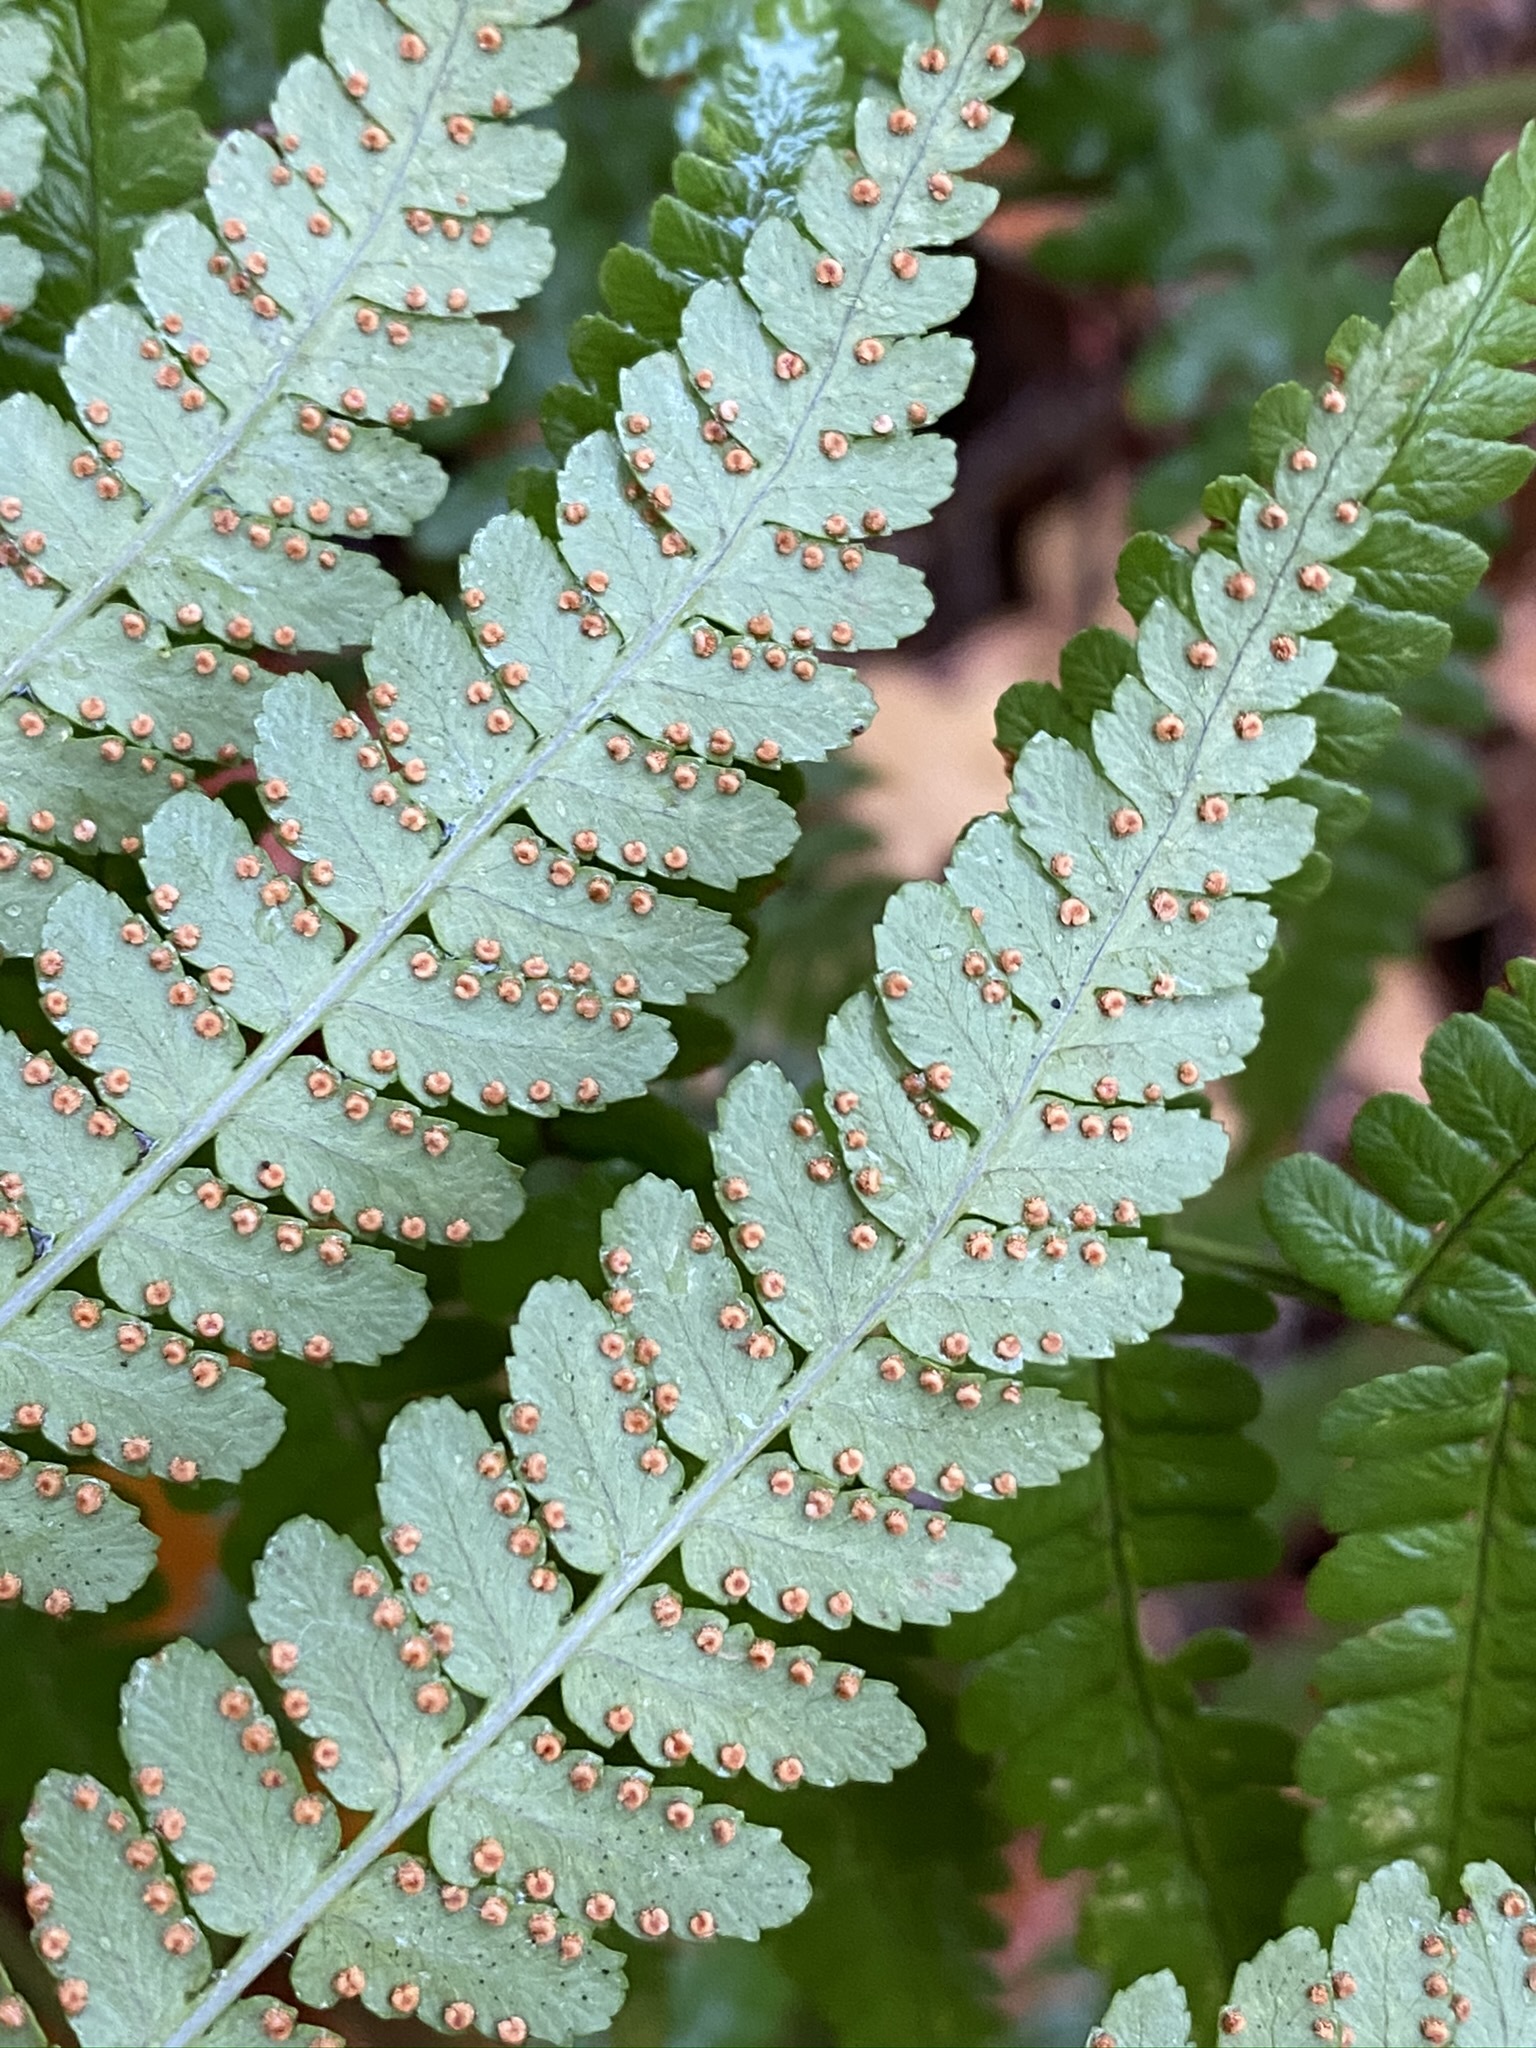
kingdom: Plantae
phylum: Tracheophyta
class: Polypodiopsida
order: Polypodiales
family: Dryopteridaceae
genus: Dryopteris
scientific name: Dryopteris marginalis
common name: Marginal wood fern
